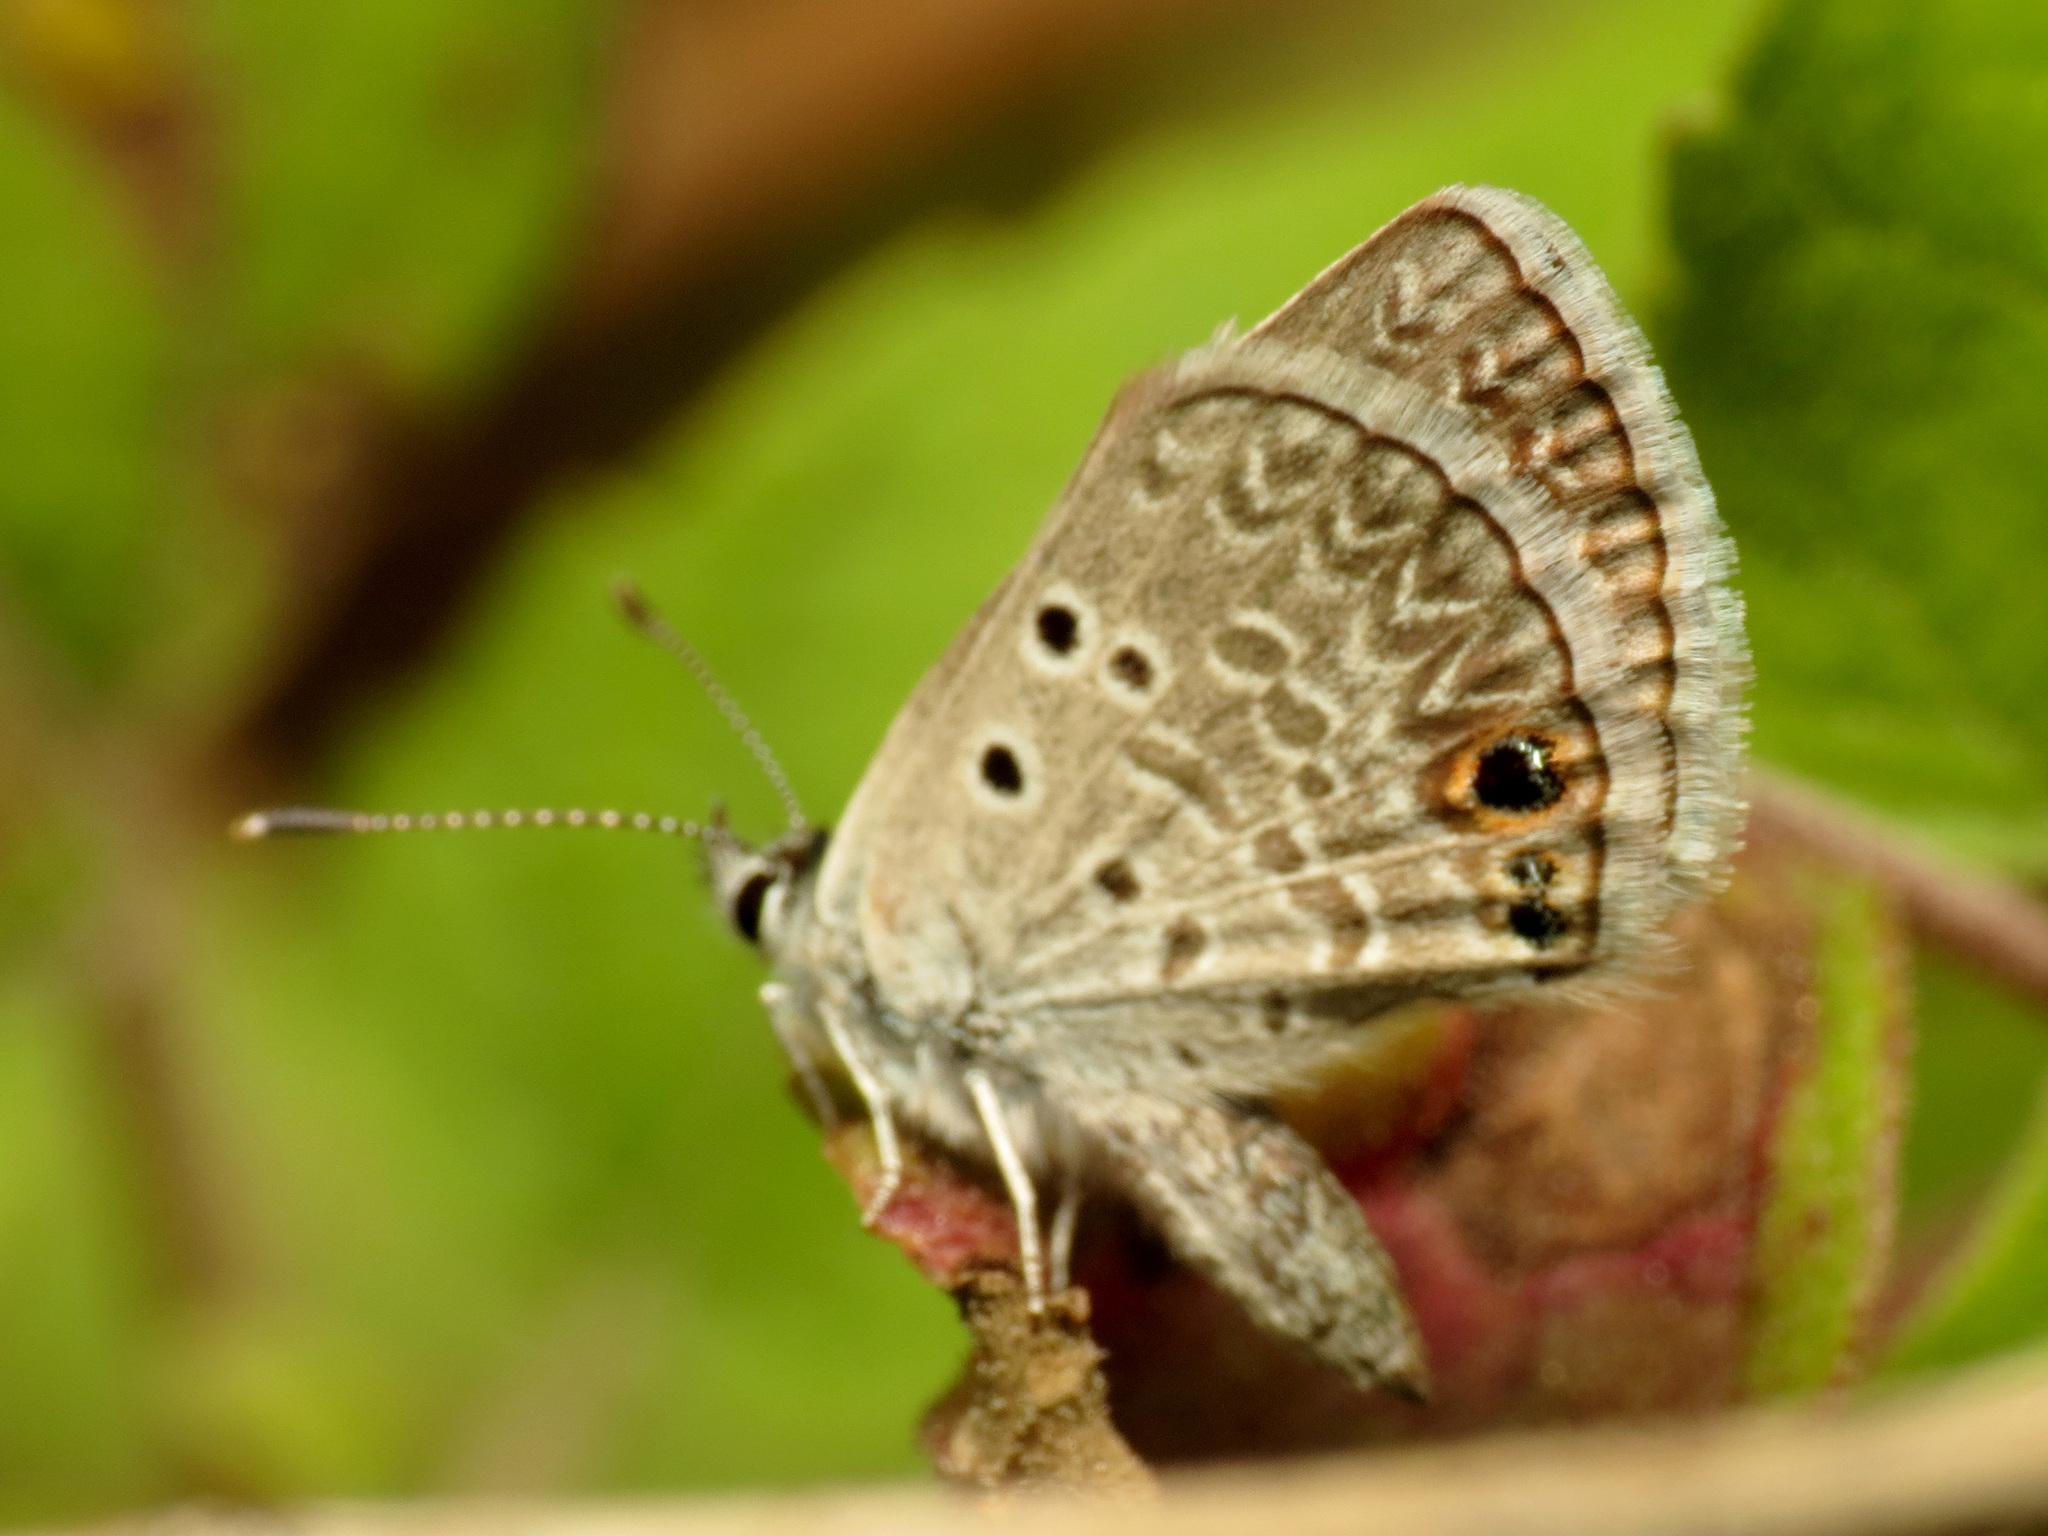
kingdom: Animalia
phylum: Arthropoda
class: Insecta
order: Lepidoptera
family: Lycaenidae
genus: Hemiargus
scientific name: Hemiargus ceraunus
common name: Ceraunus blue
